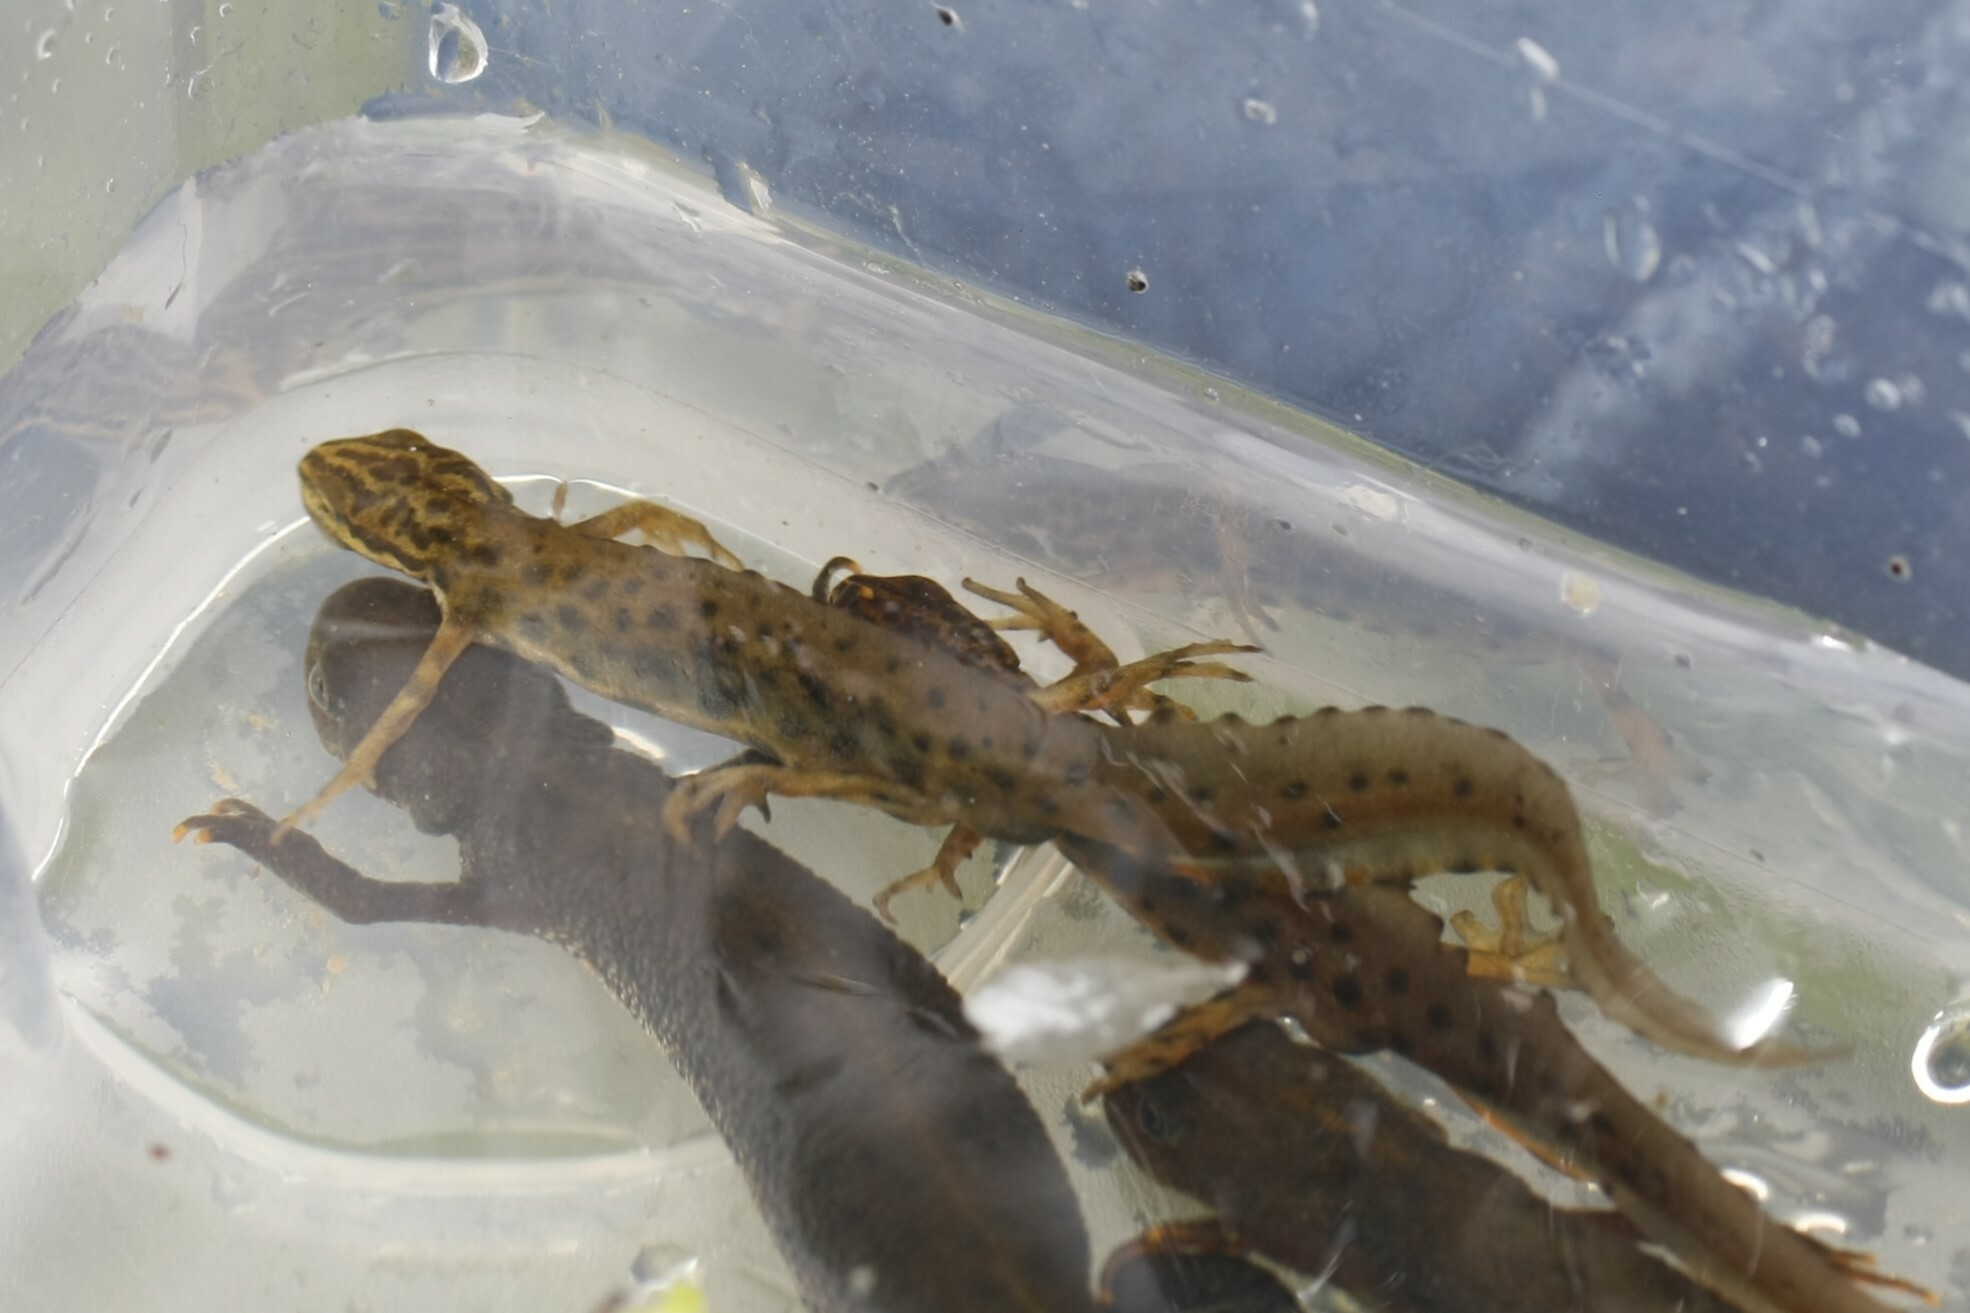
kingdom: Animalia
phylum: Chordata
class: Amphibia
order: Caudata
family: Salamandridae
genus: Lissotriton
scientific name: Lissotriton vulgaris
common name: Smooth newt
